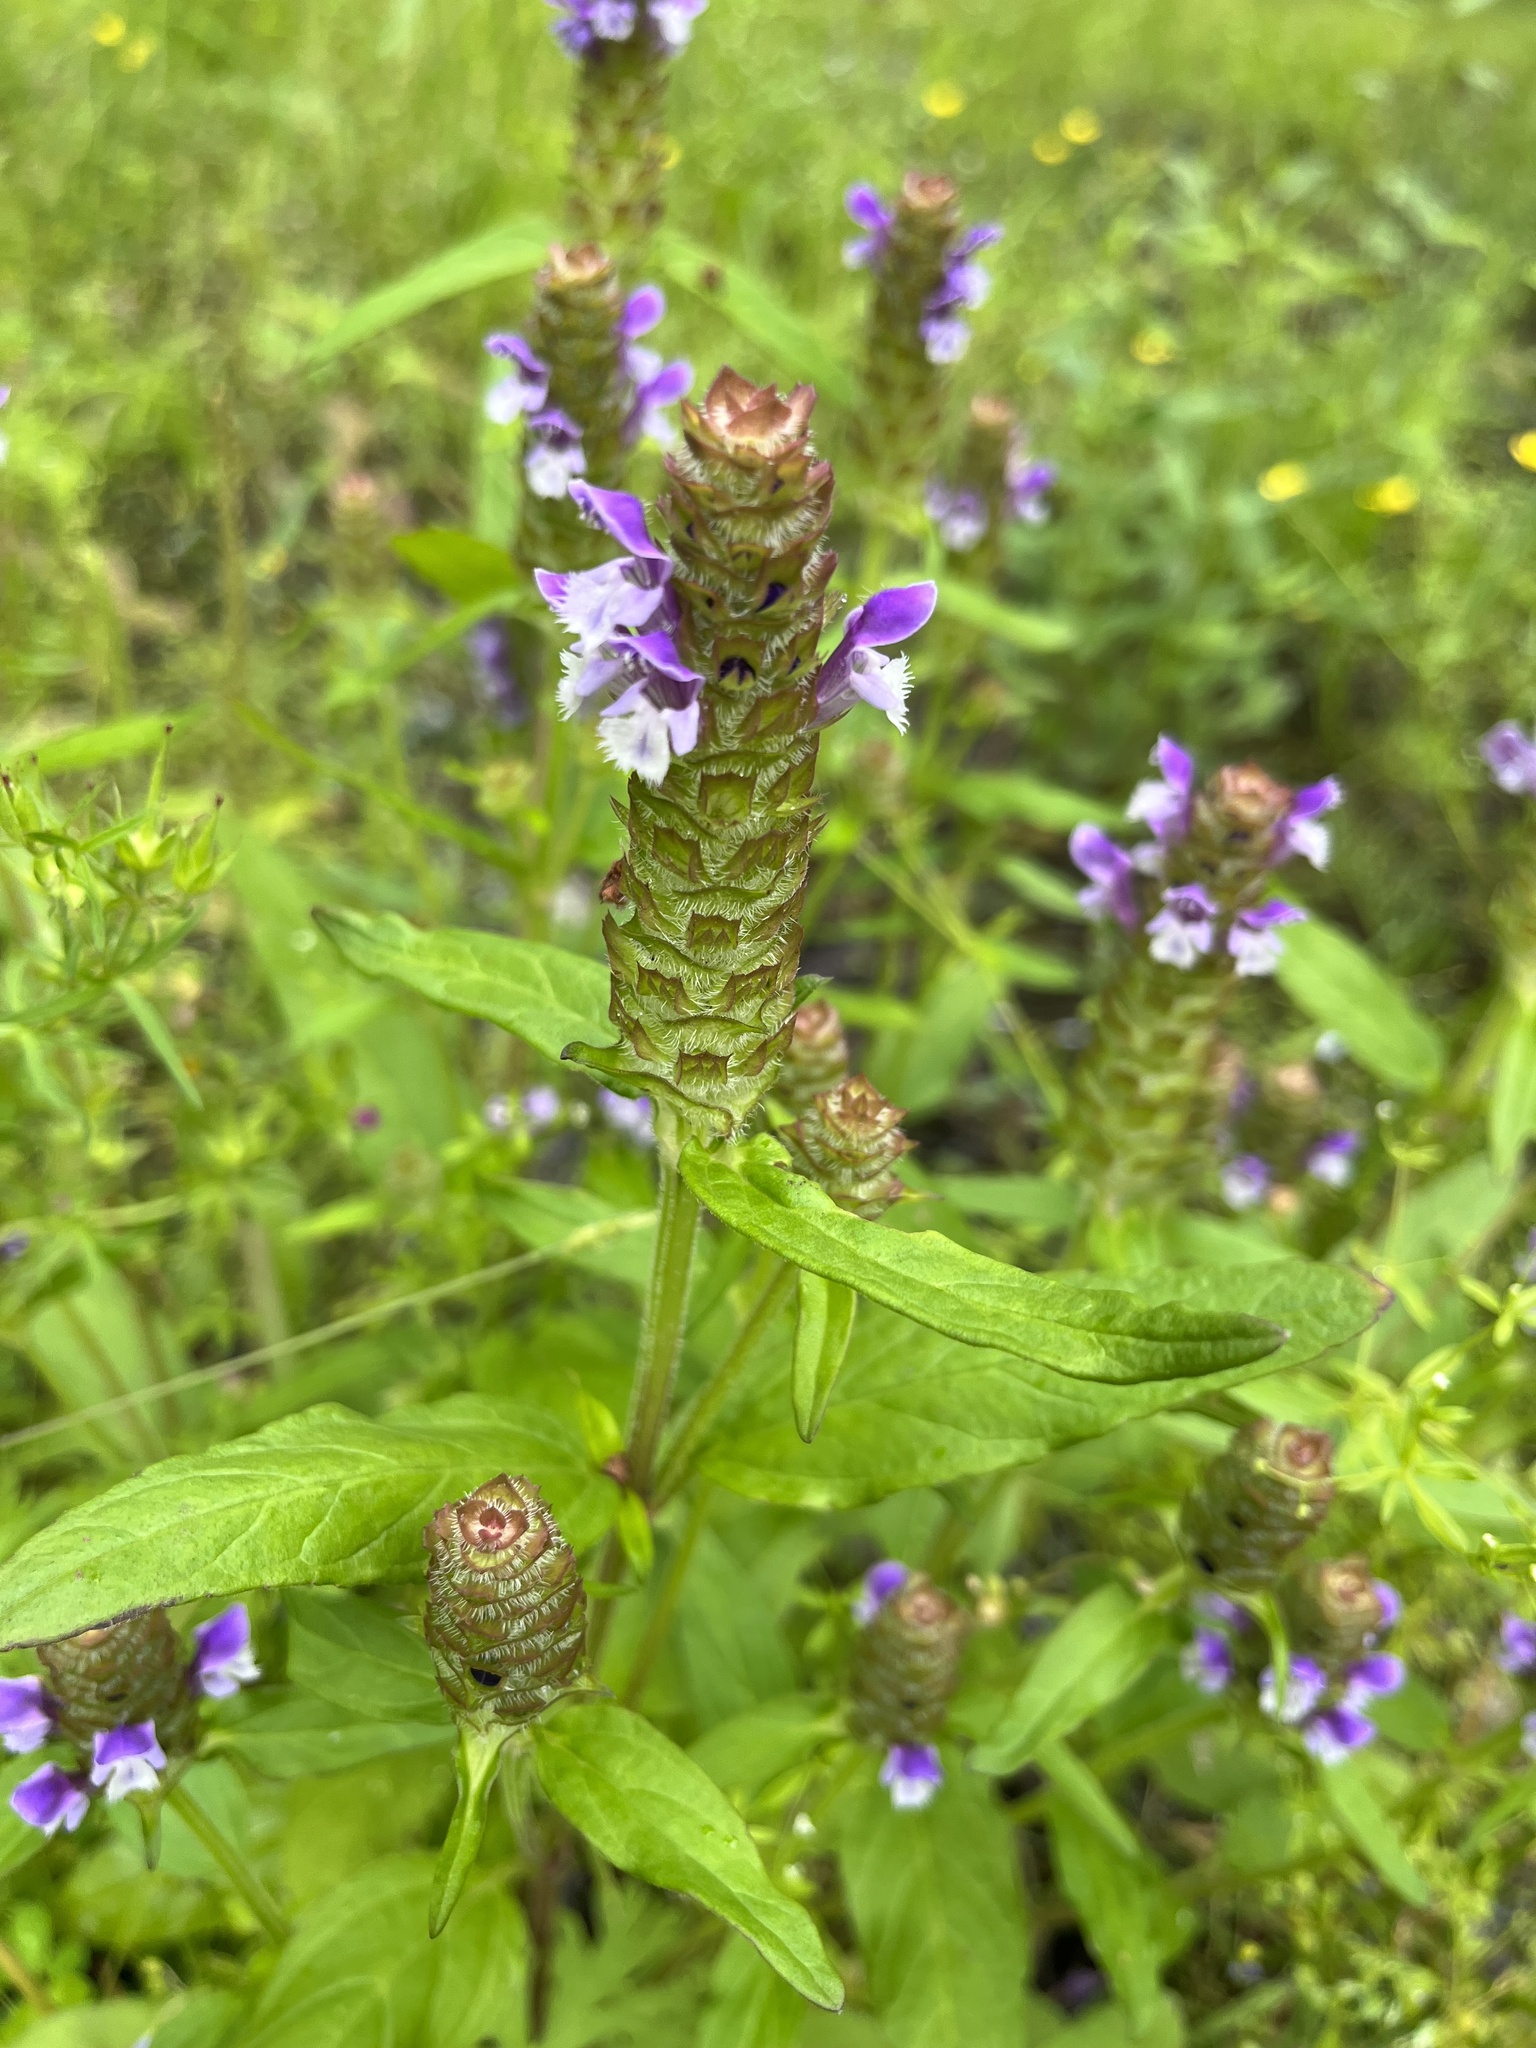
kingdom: Plantae
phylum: Tracheophyta
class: Magnoliopsida
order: Lamiales
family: Lamiaceae
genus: Prunella
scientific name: Prunella vulgaris
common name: Heal-all
